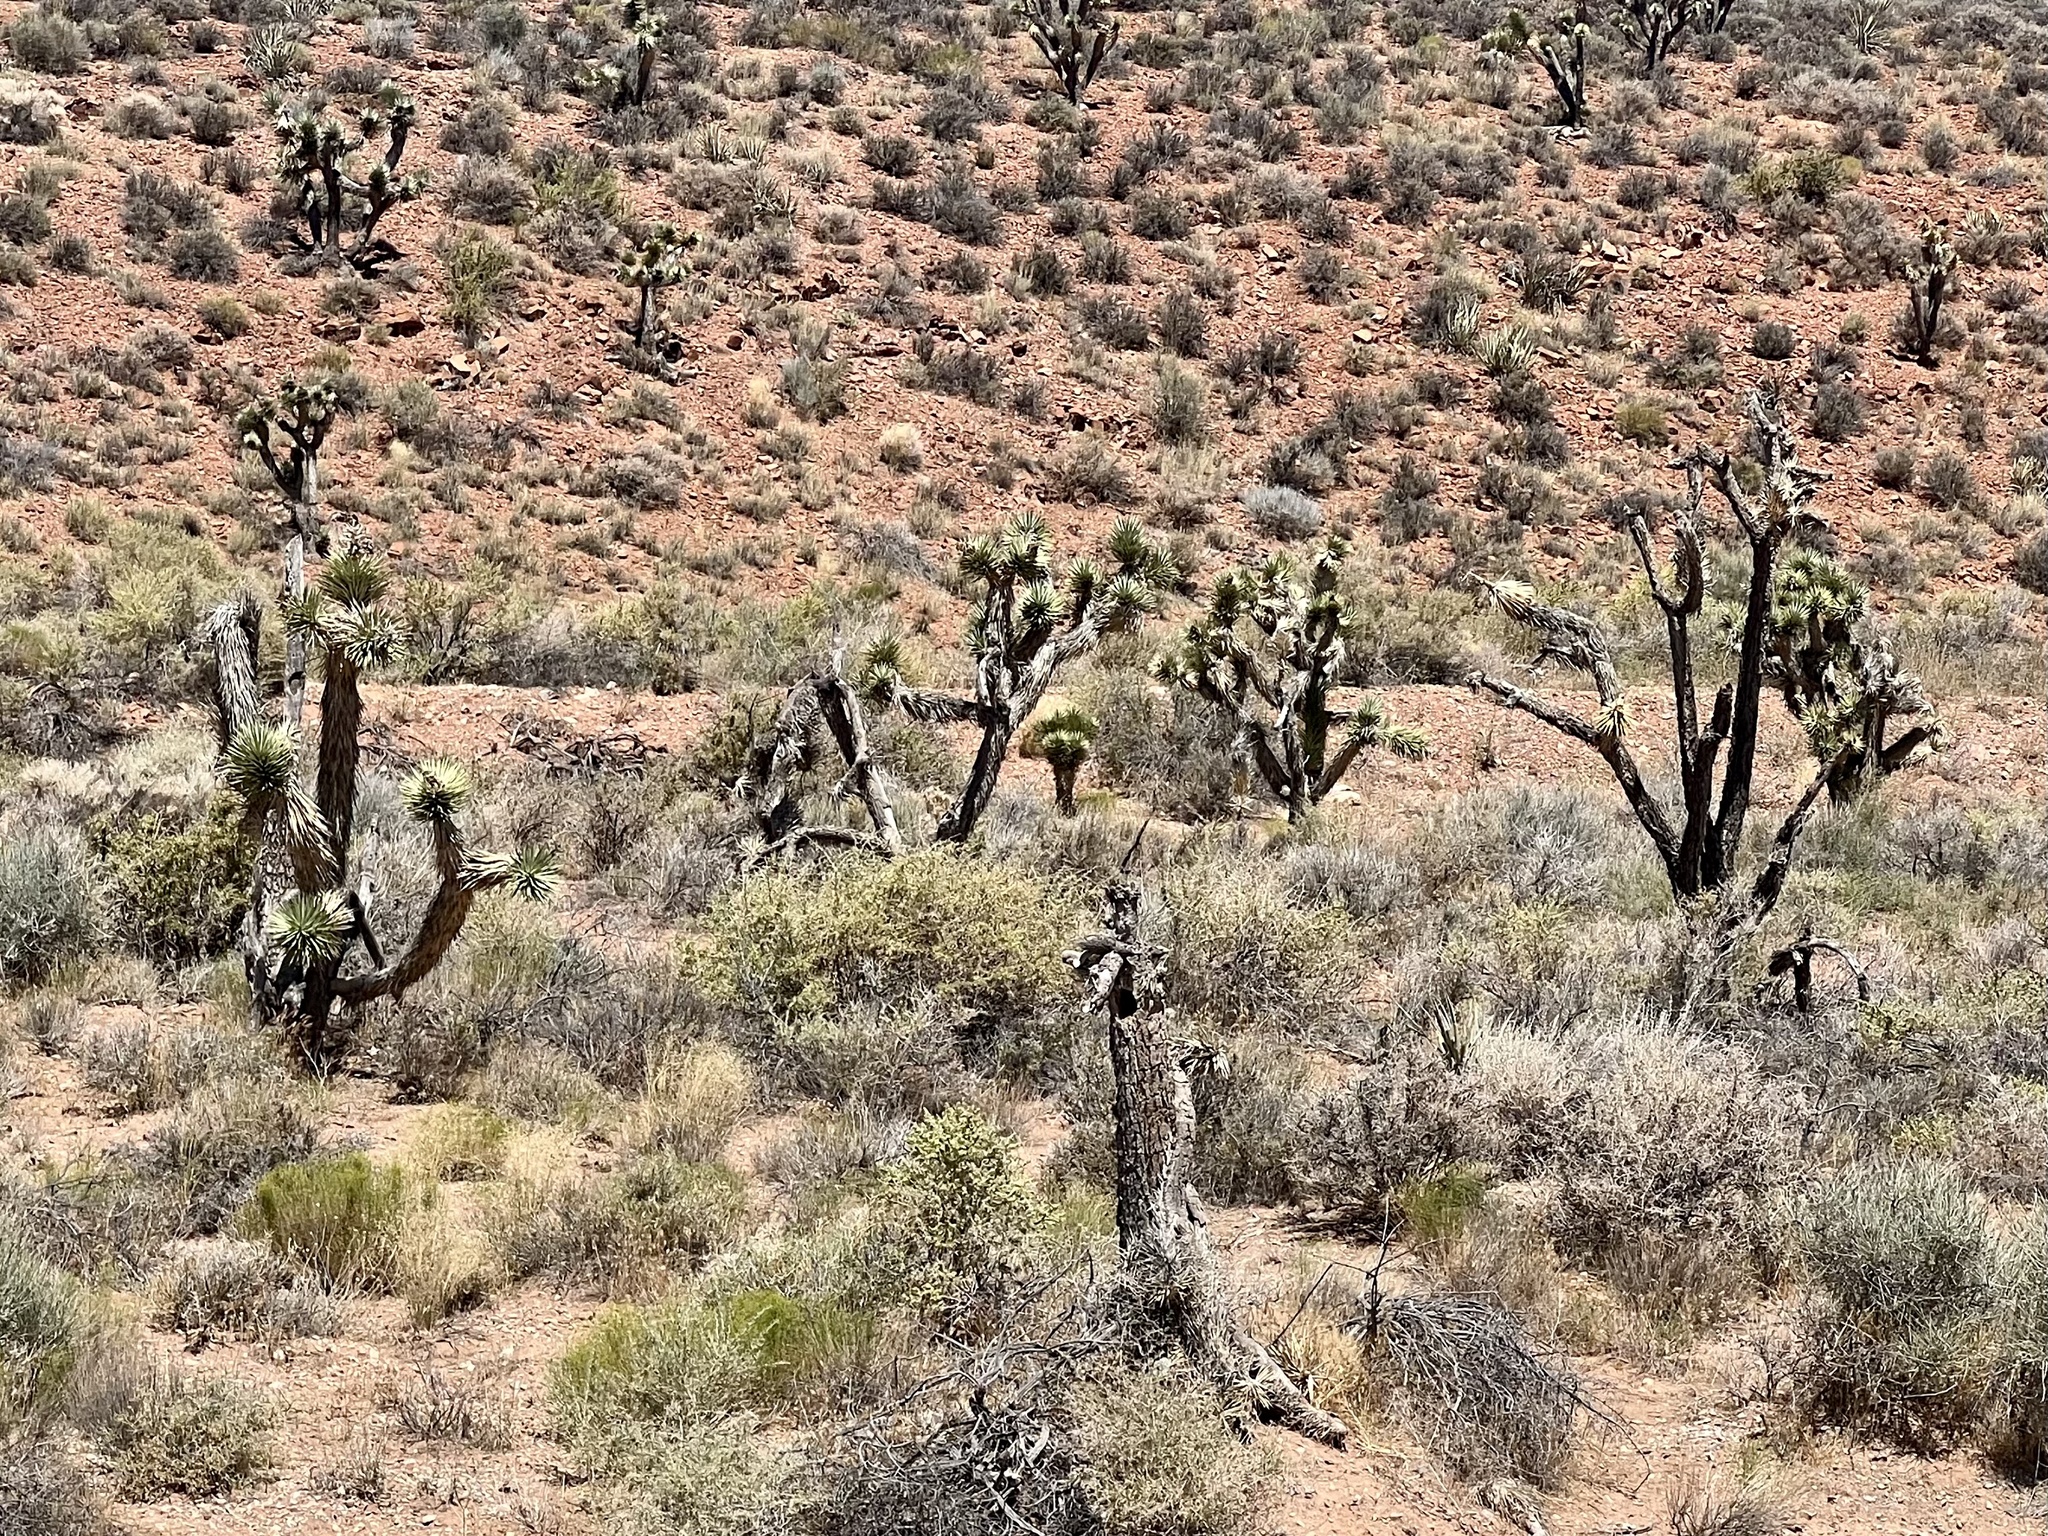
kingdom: Plantae
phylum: Tracheophyta
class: Liliopsida
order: Asparagales
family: Asparagaceae
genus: Yucca
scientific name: Yucca brevifolia
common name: Joshua tree
